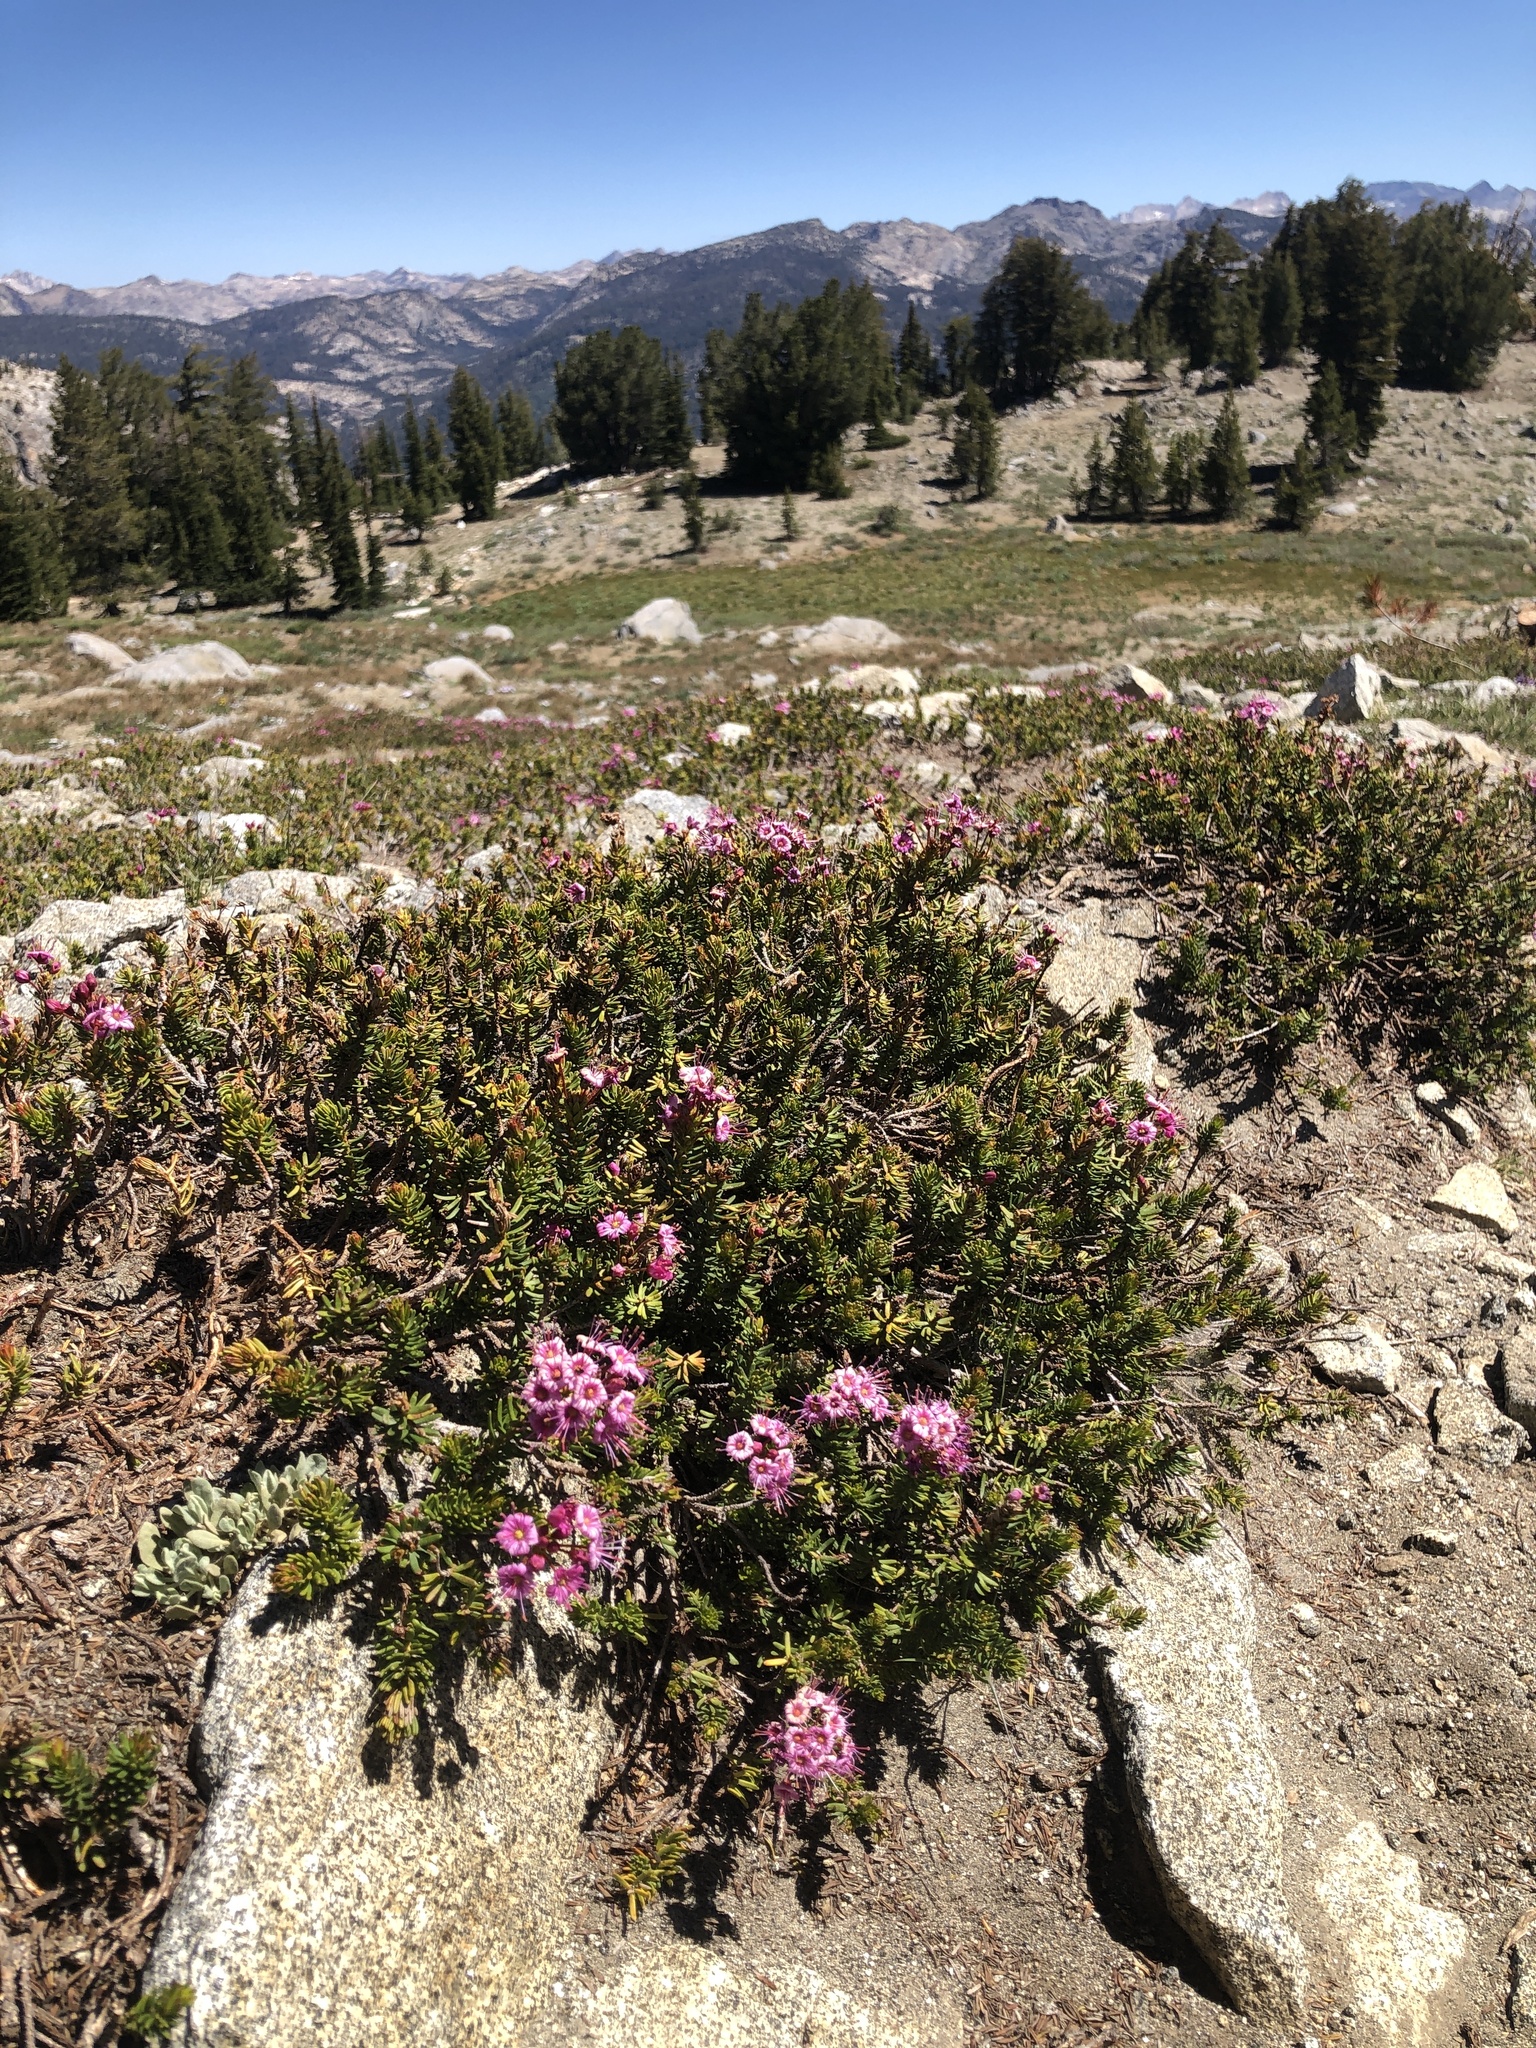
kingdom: Plantae
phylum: Tracheophyta
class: Magnoliopsida
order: Ericales
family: Ericaceae
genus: Phyllodoce
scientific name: Phyllodoce breweri
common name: Brewer's mountain-heather
